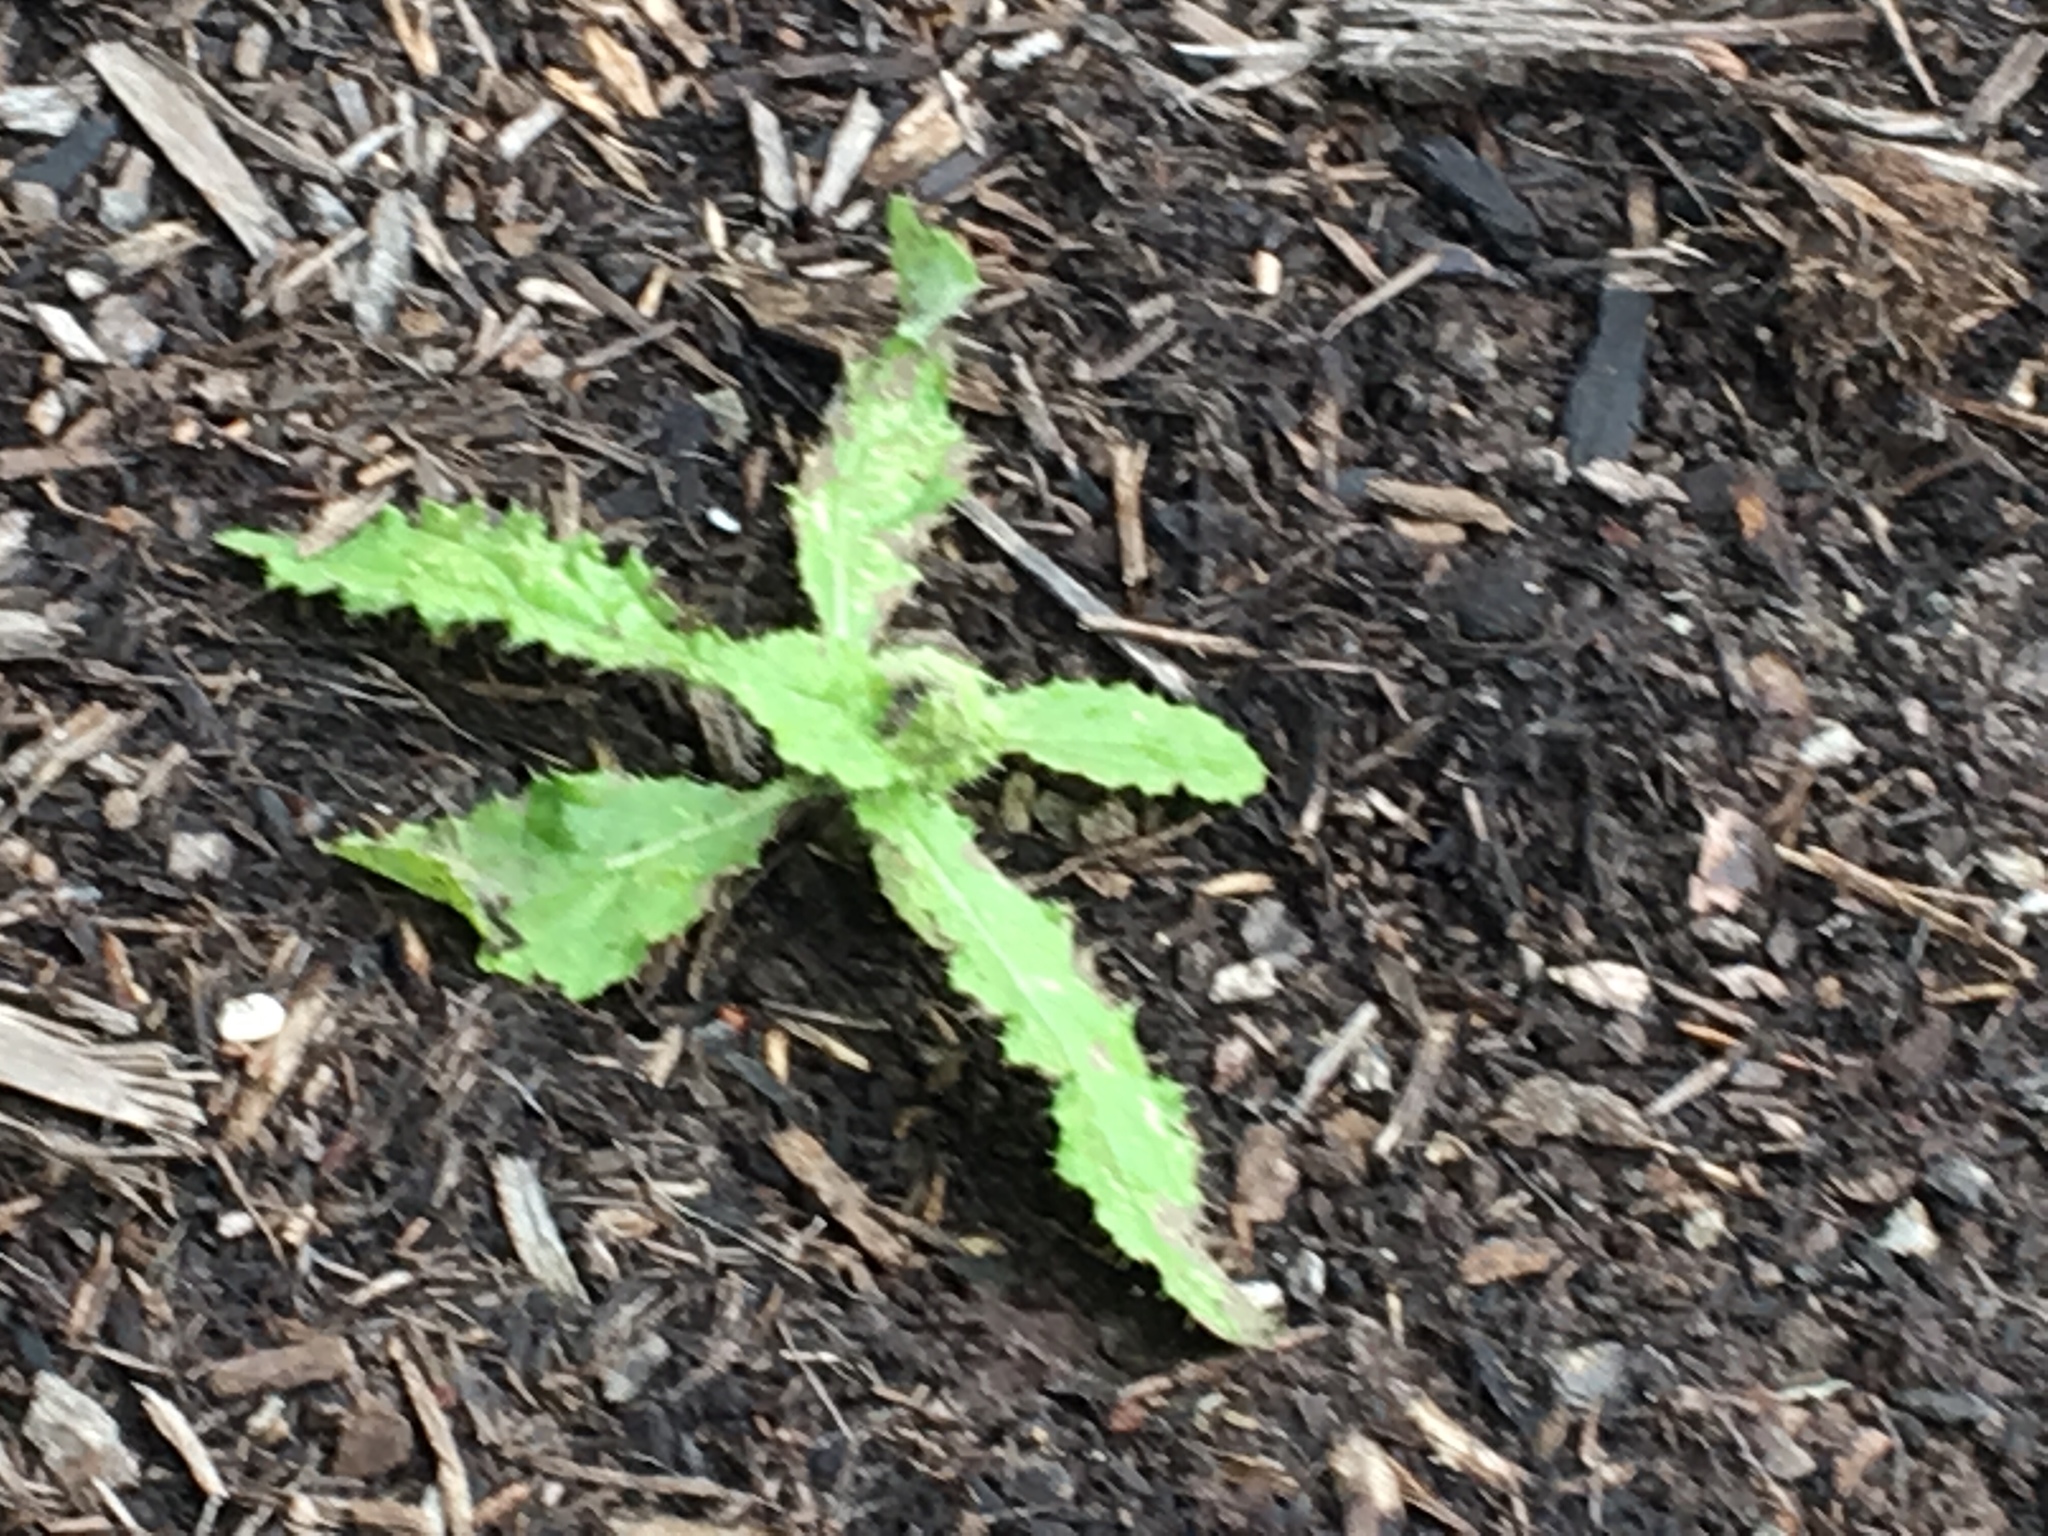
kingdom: Plantae
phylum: Tracheophyta
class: Magnoliopsida
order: Asterales
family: Asteraceae
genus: Cirsium
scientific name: Cirsium arvense
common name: Creeping thistle
